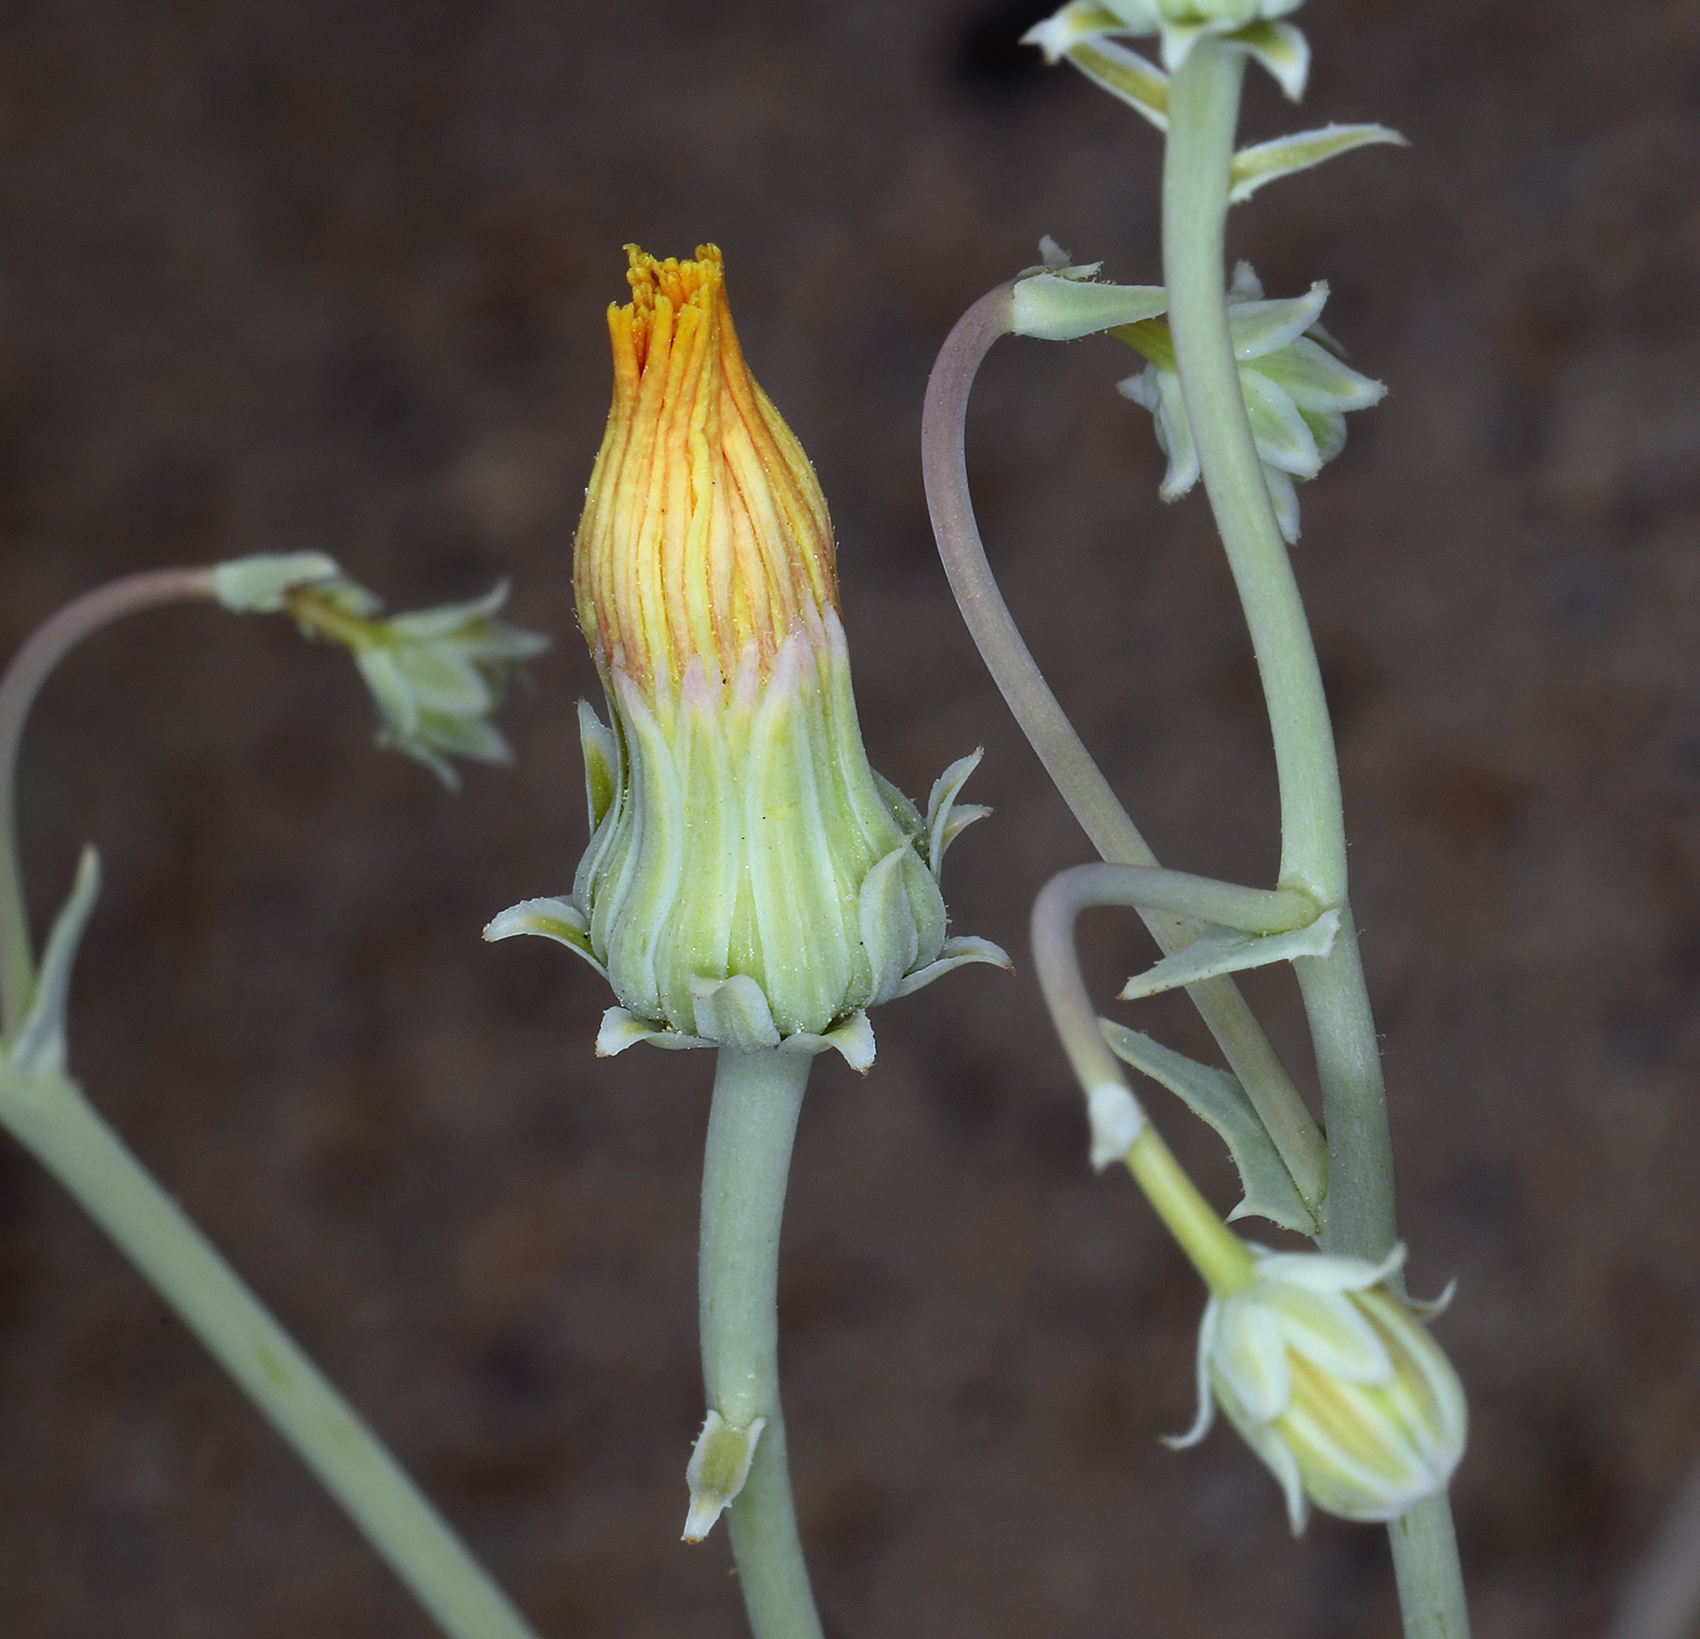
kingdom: Plantae
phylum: Tracheophyta
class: Magnoliopsida
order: Asterales
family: Asteraceae
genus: Malacothrix
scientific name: Malacothrix sonchoides
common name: Sow-thistle desert-dandelion
